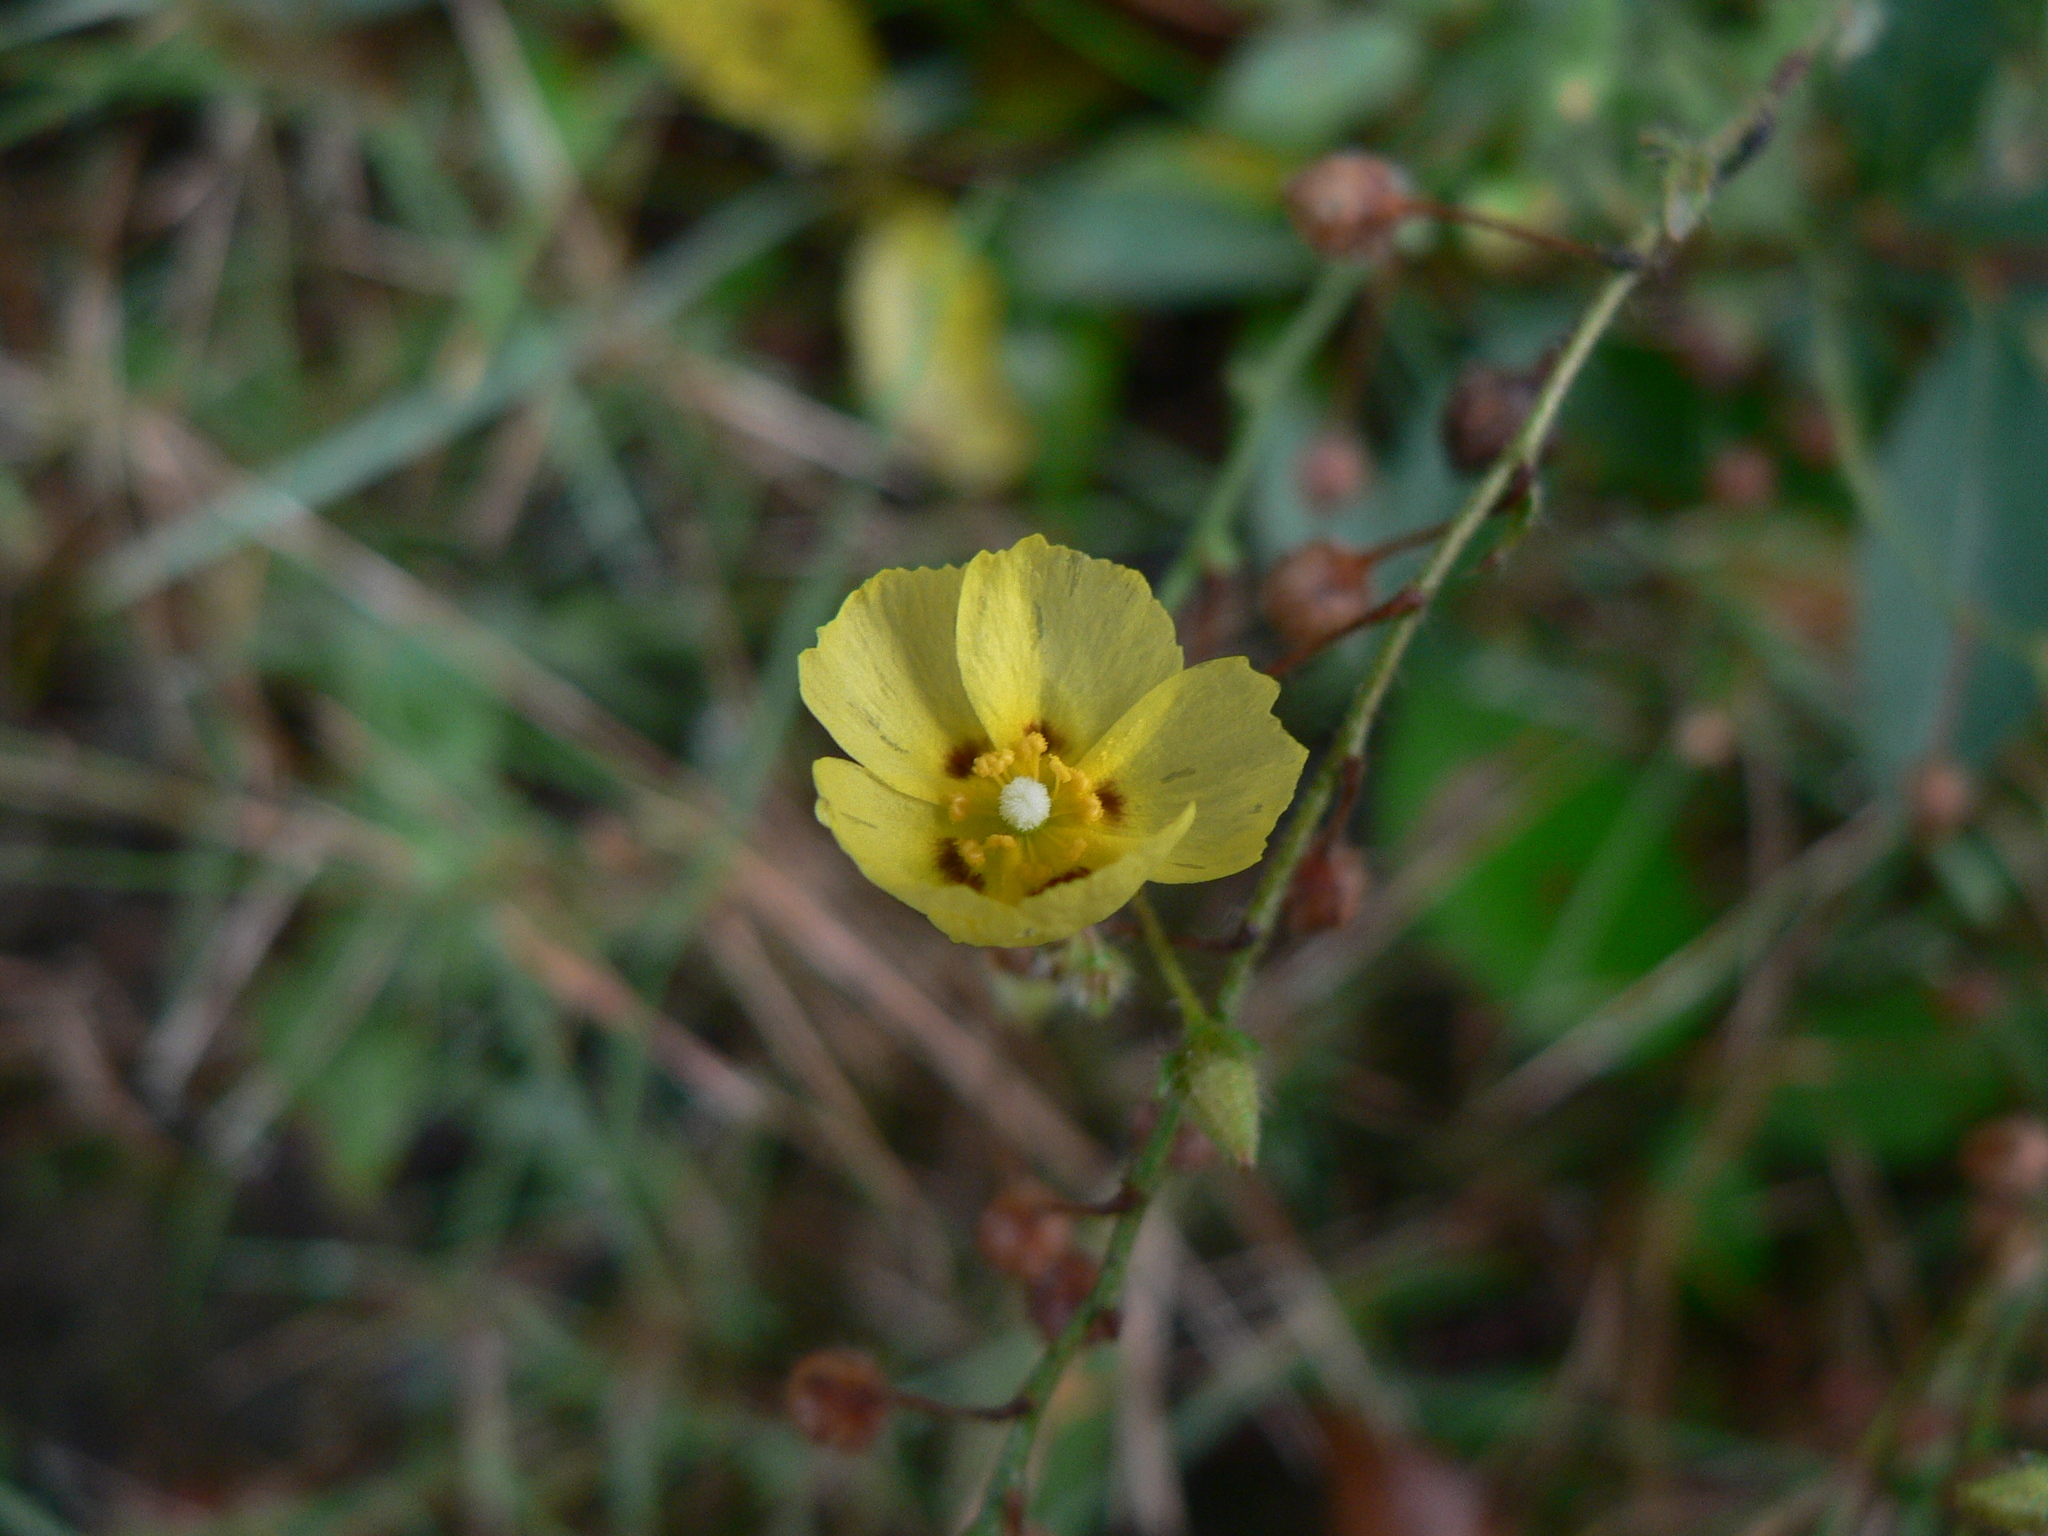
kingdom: Plantae
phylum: Tracheophyta
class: Magnoliopsida
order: Malvales
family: Cistaceae
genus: Tuberaria
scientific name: Tuberaria guttata
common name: Spotted rock-rose
